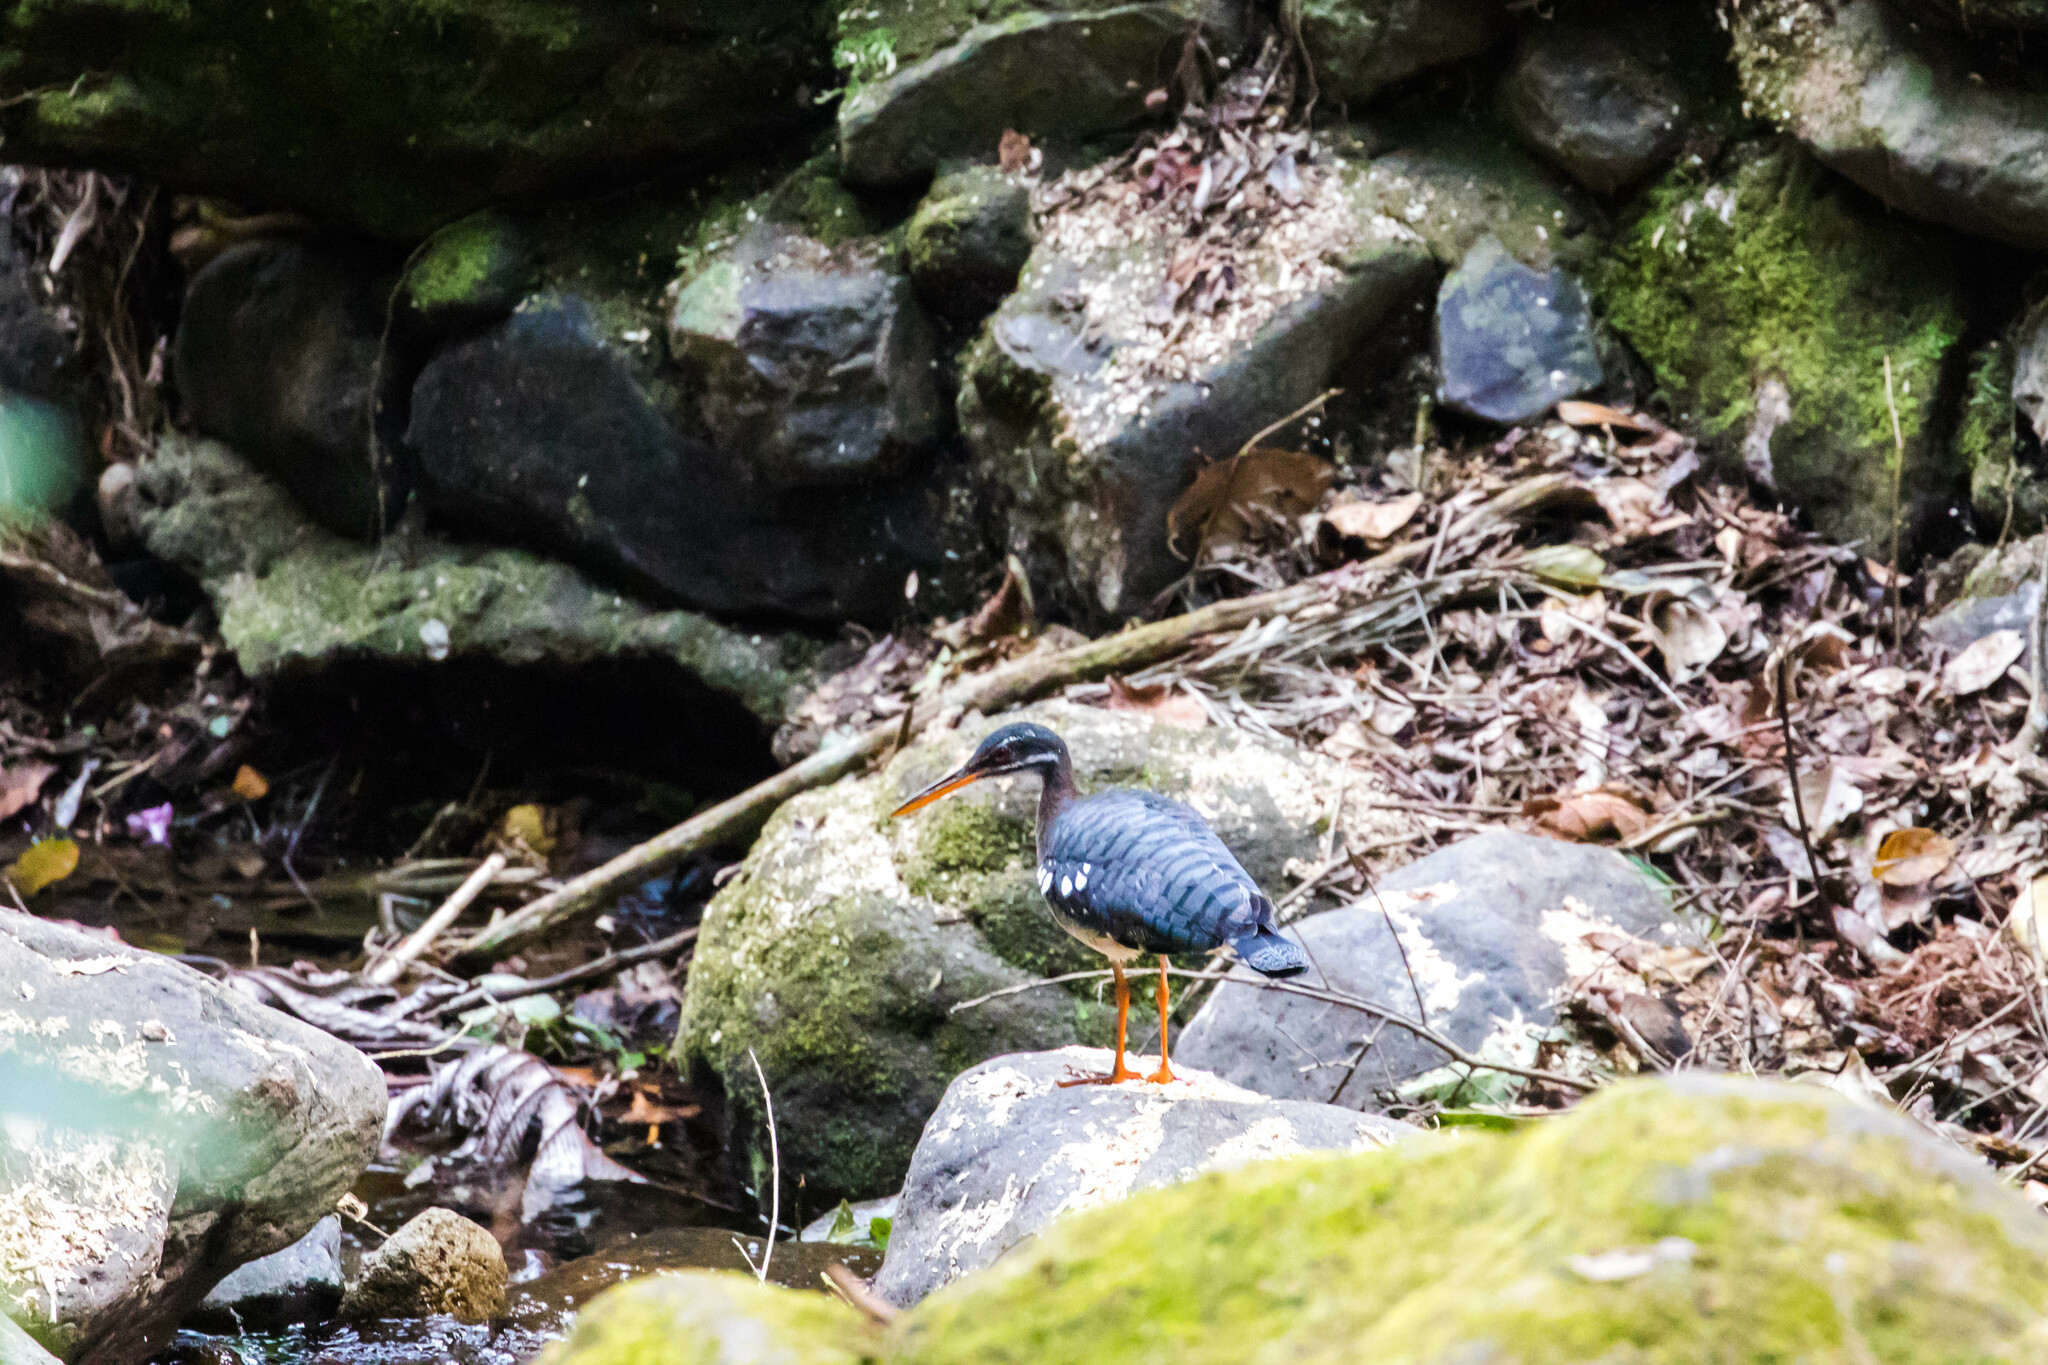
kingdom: Animalia
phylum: Chordata
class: Aves
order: Eurypygiformes
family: Eurypygidae
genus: Eurypyga
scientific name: Eurypyga helias
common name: Sunbittern
